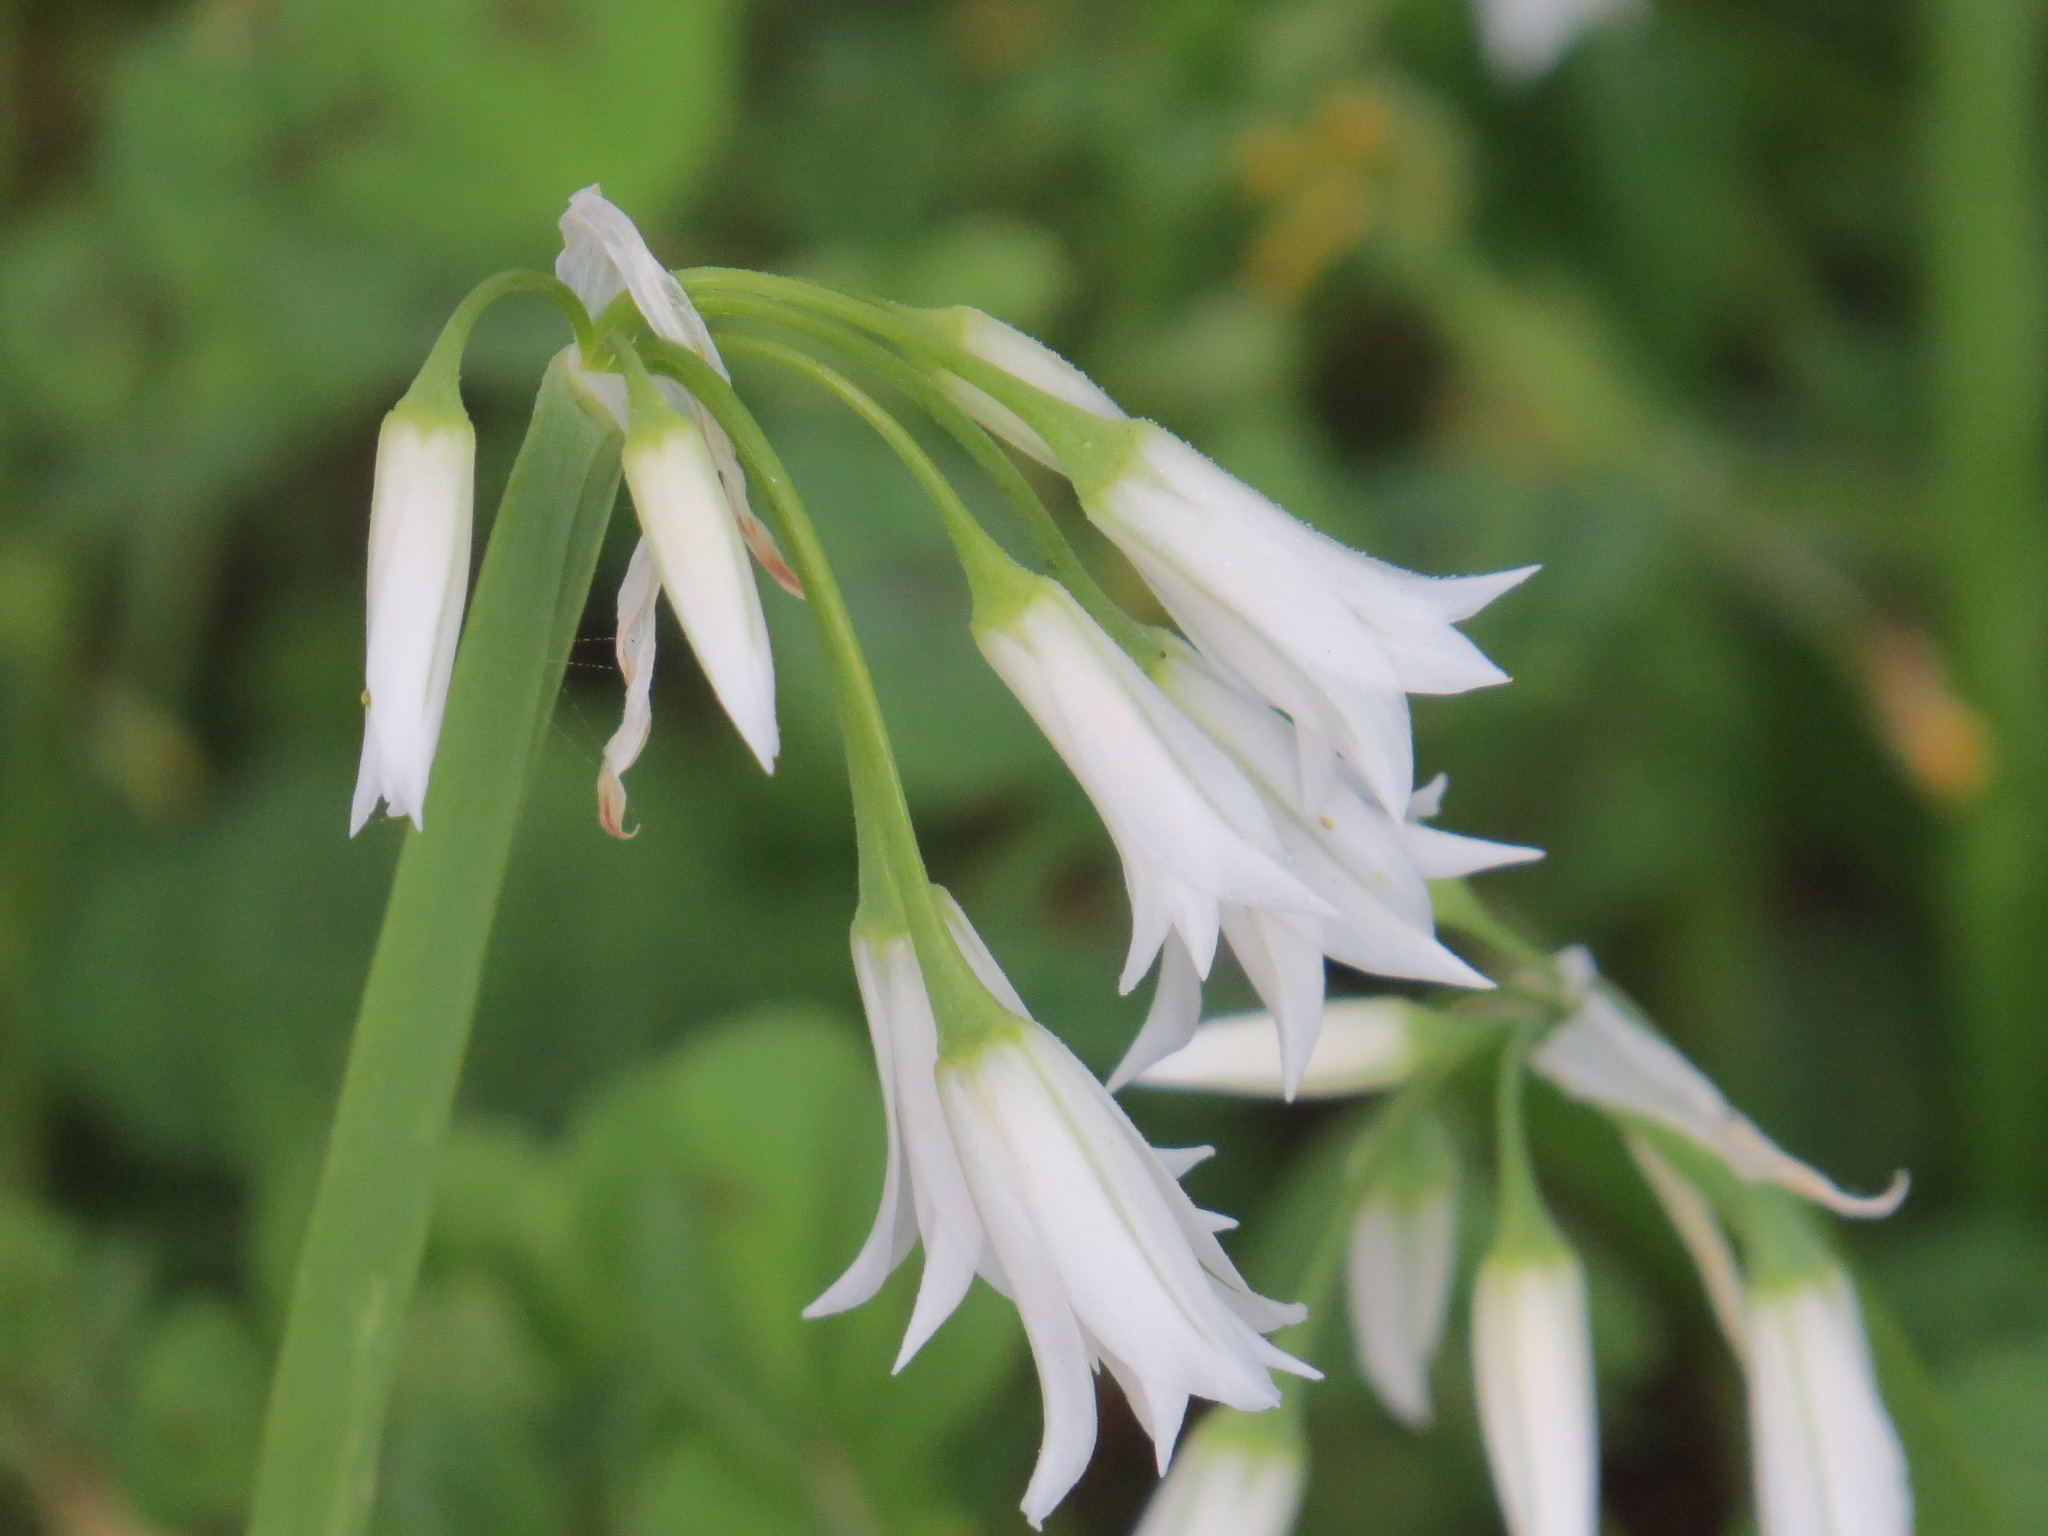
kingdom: Plantae
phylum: Tracheophyta
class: Liliopsida
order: Asparagales
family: Amaryllidaceae
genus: Allium
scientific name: Allium triquetrum
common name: Three-cornered garlic
